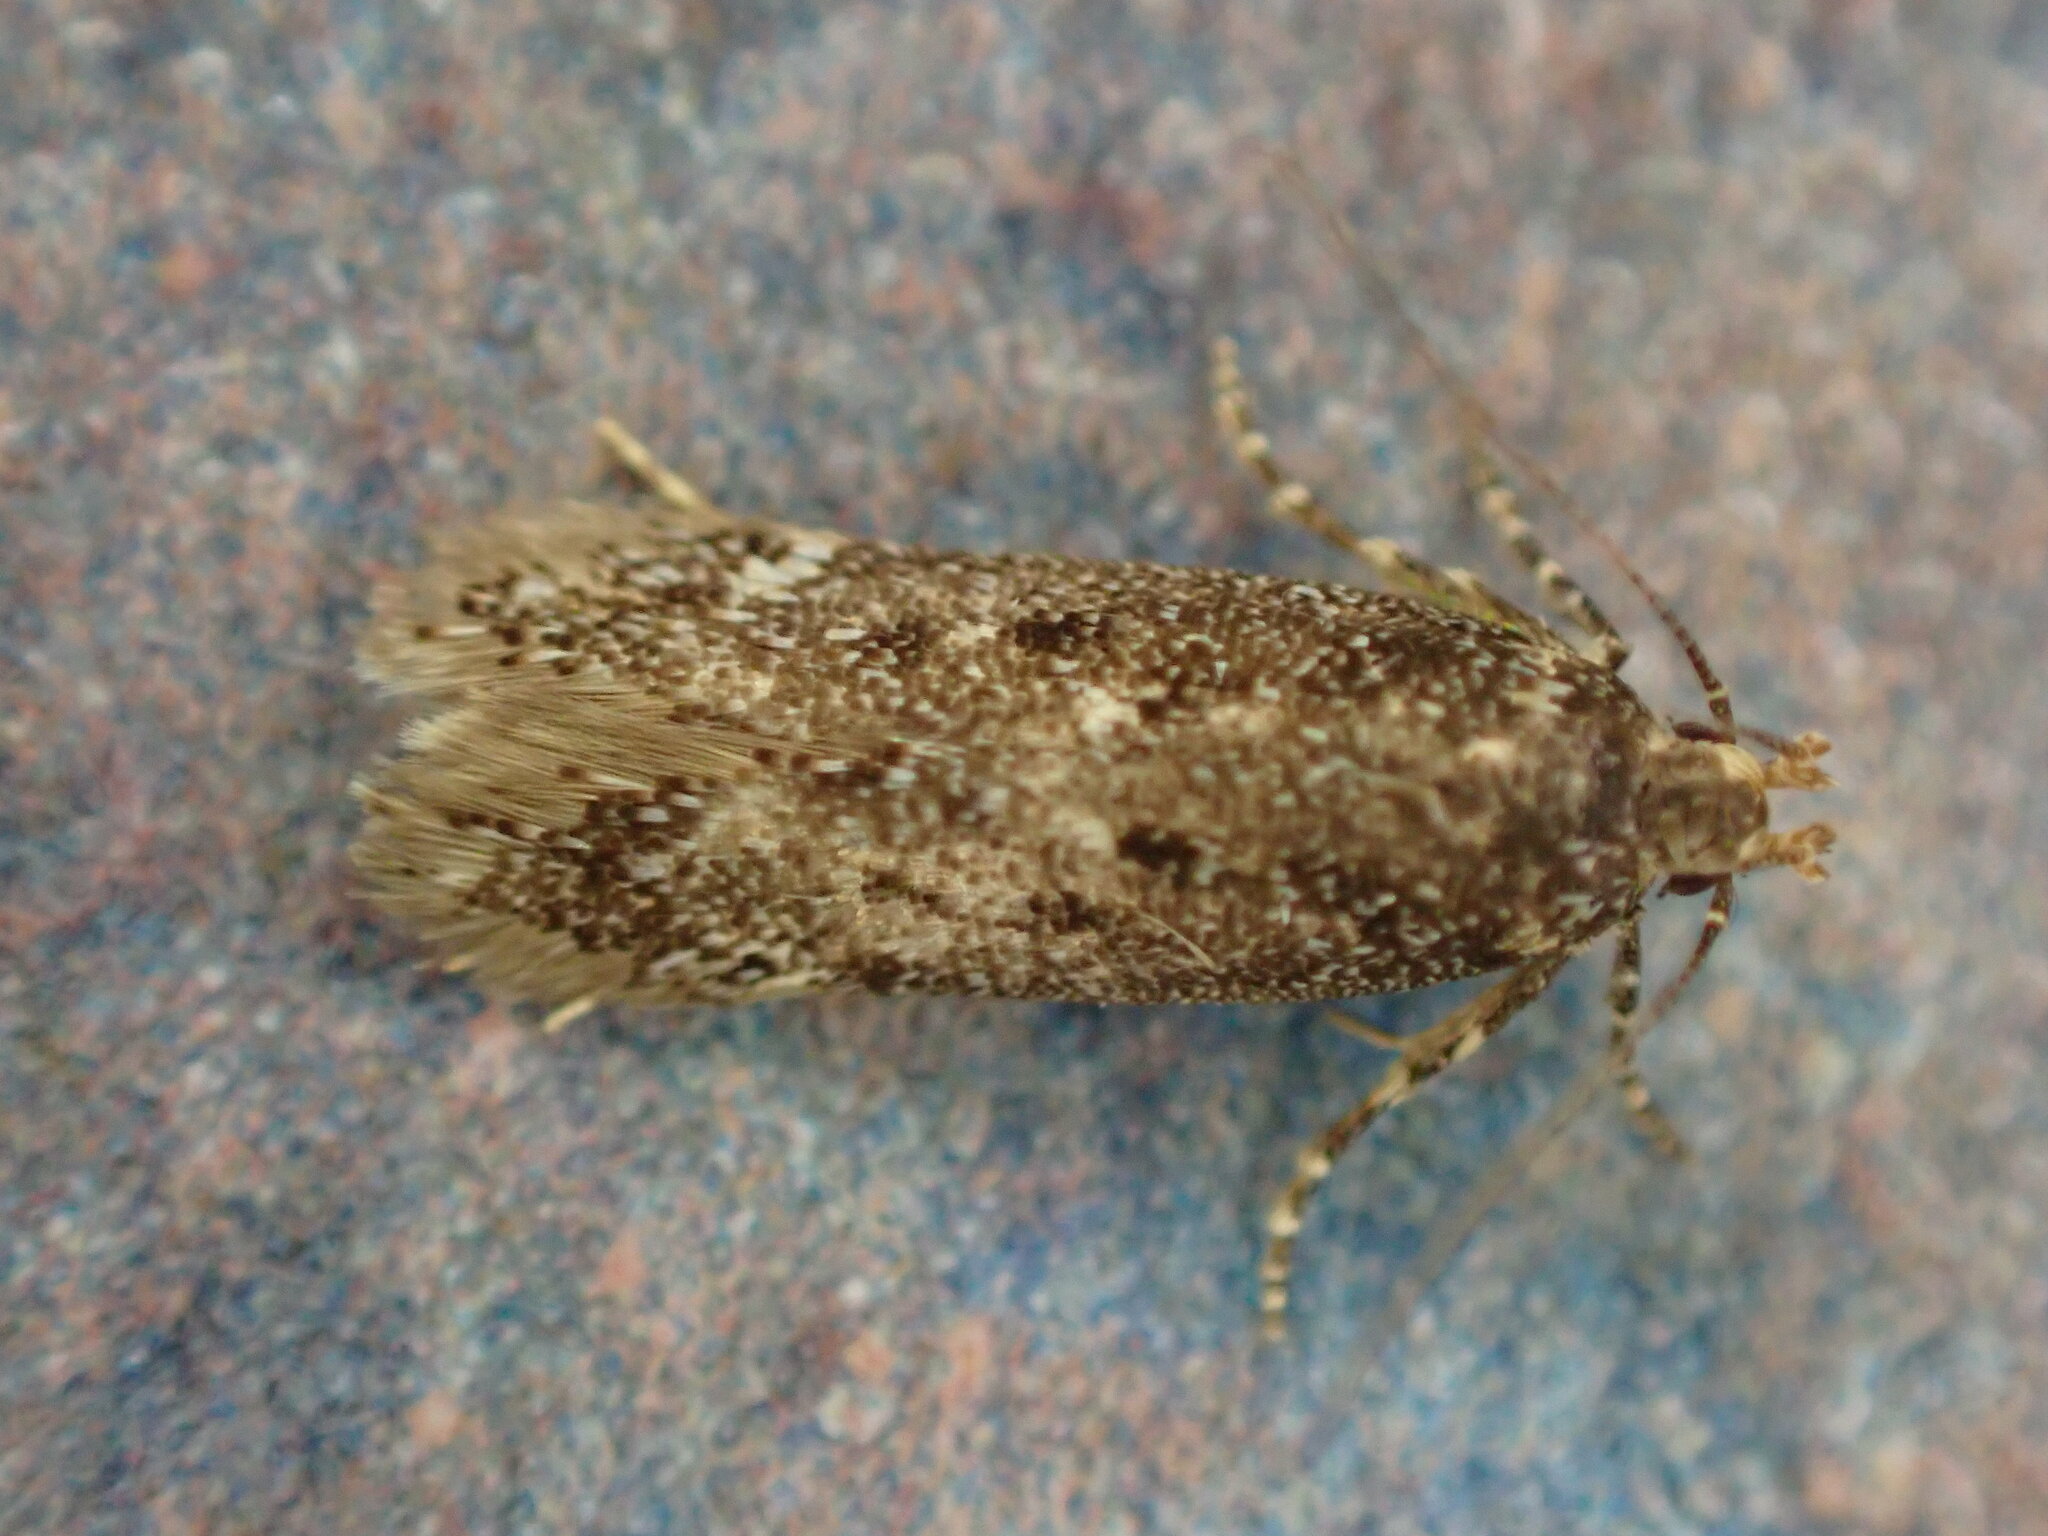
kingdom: Animalia
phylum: Arthropoda
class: Insecta
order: Lepidoptera
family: Gelechiidae
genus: Bryotropha
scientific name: Bryotropha affinis
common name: Dark groundling
